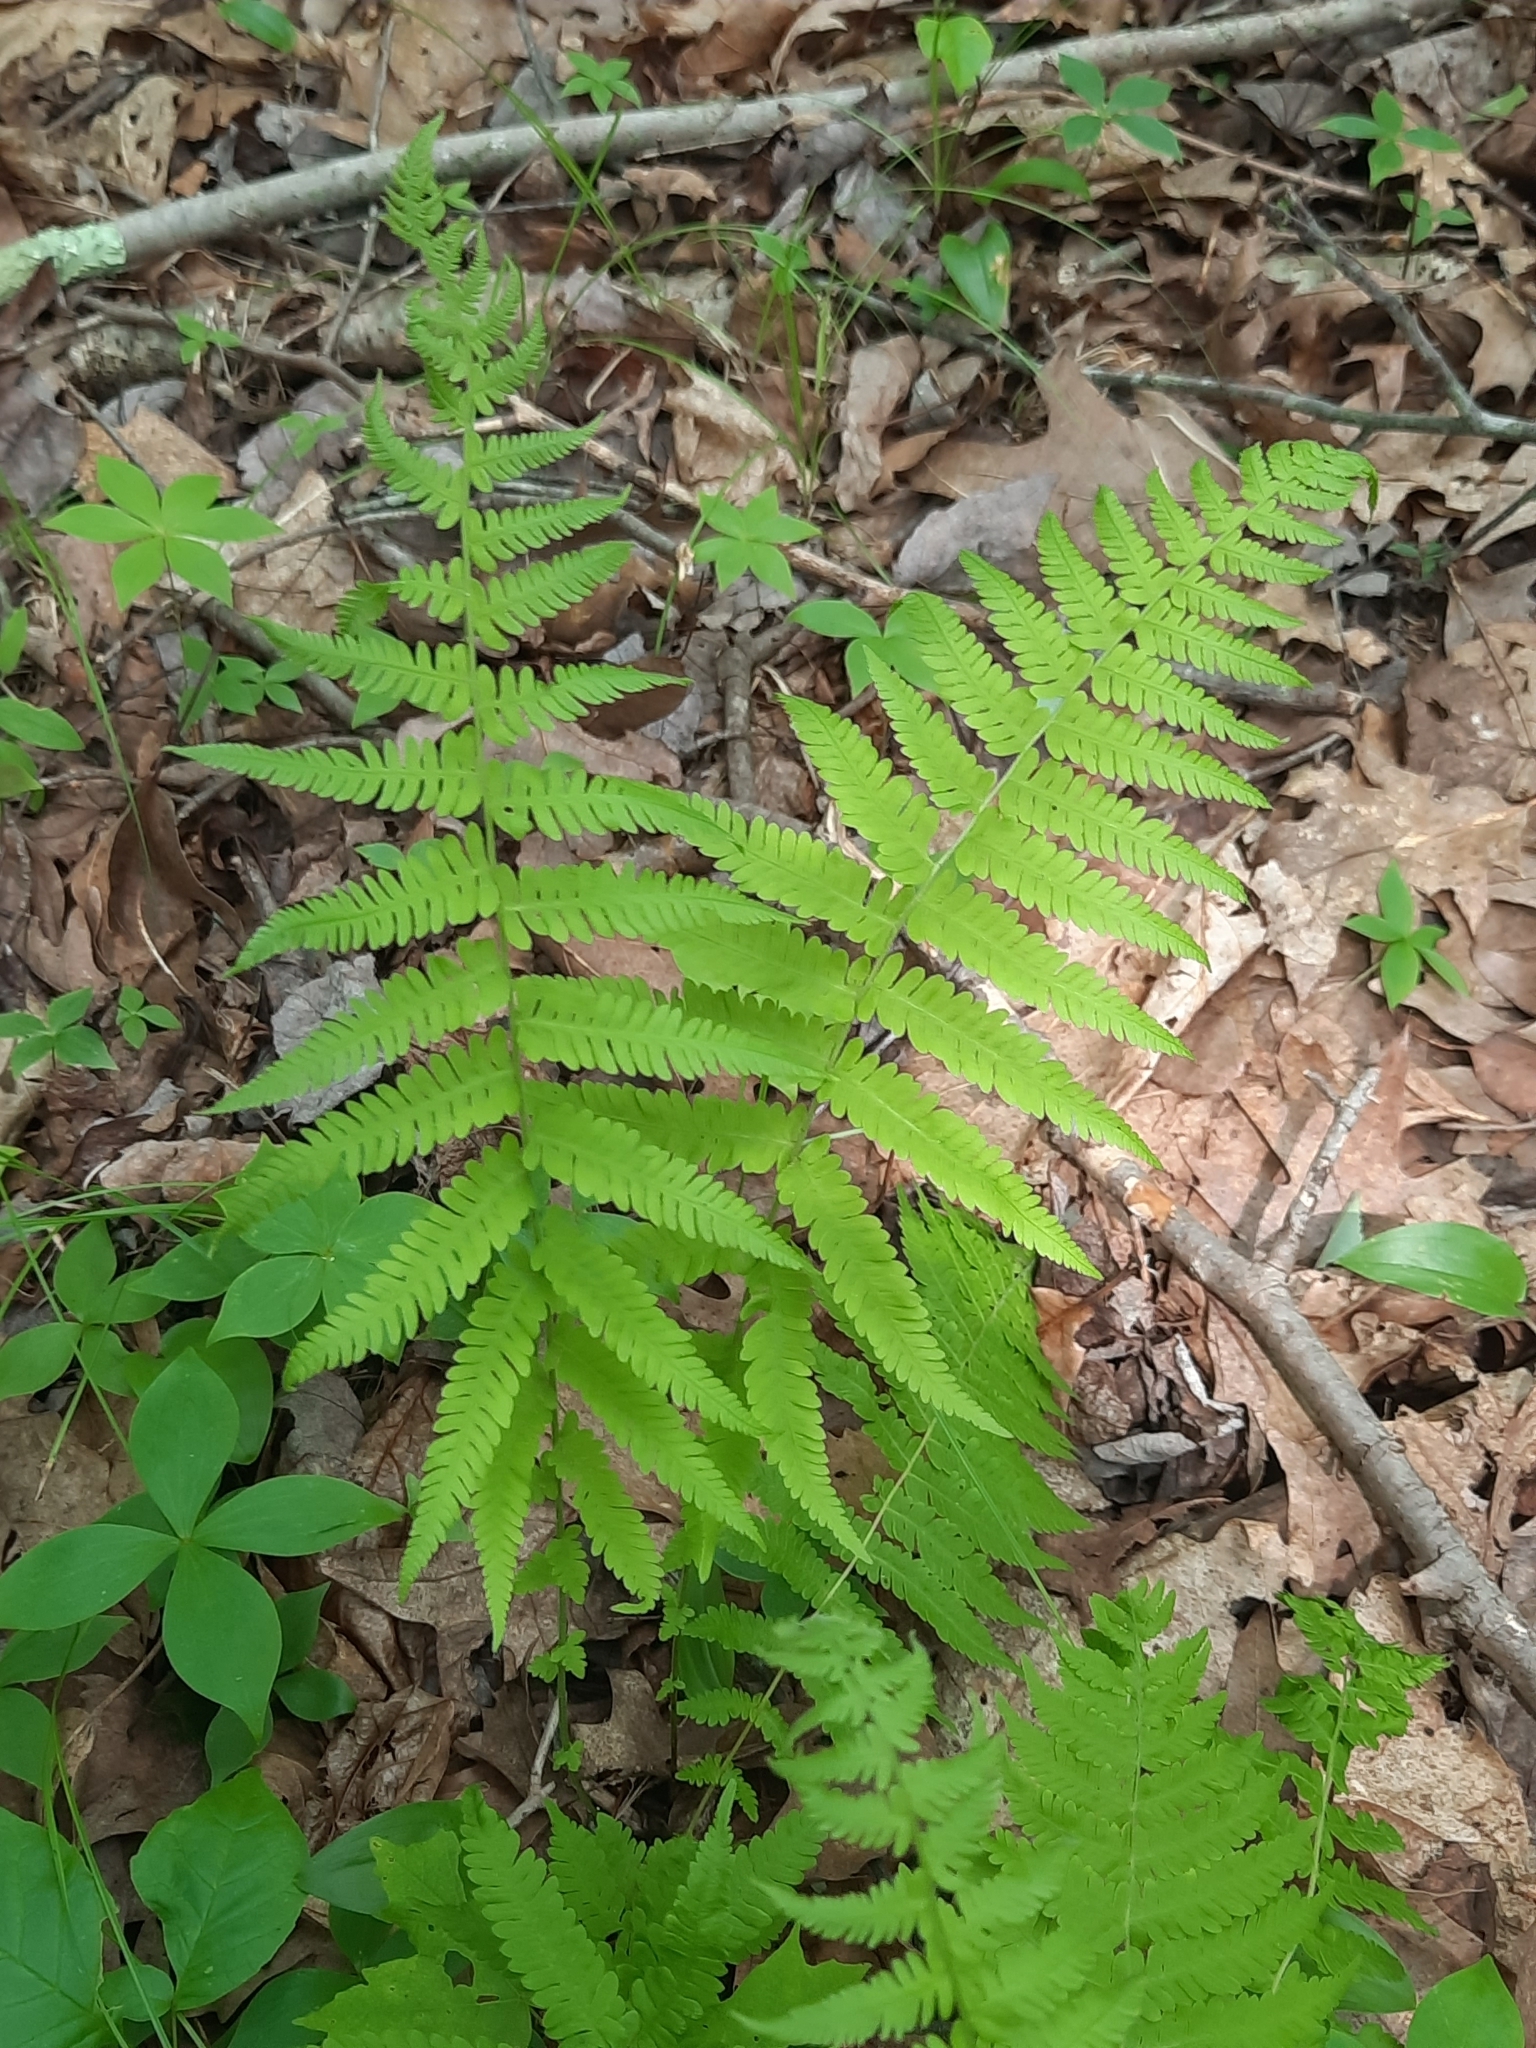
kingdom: Plantae
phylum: Tracheophyta
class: Polypodiopsida
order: Polypodiales
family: Thelypteridaceae
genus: Amauropelta
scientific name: Amauropelta noveboracensis
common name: New york fern
